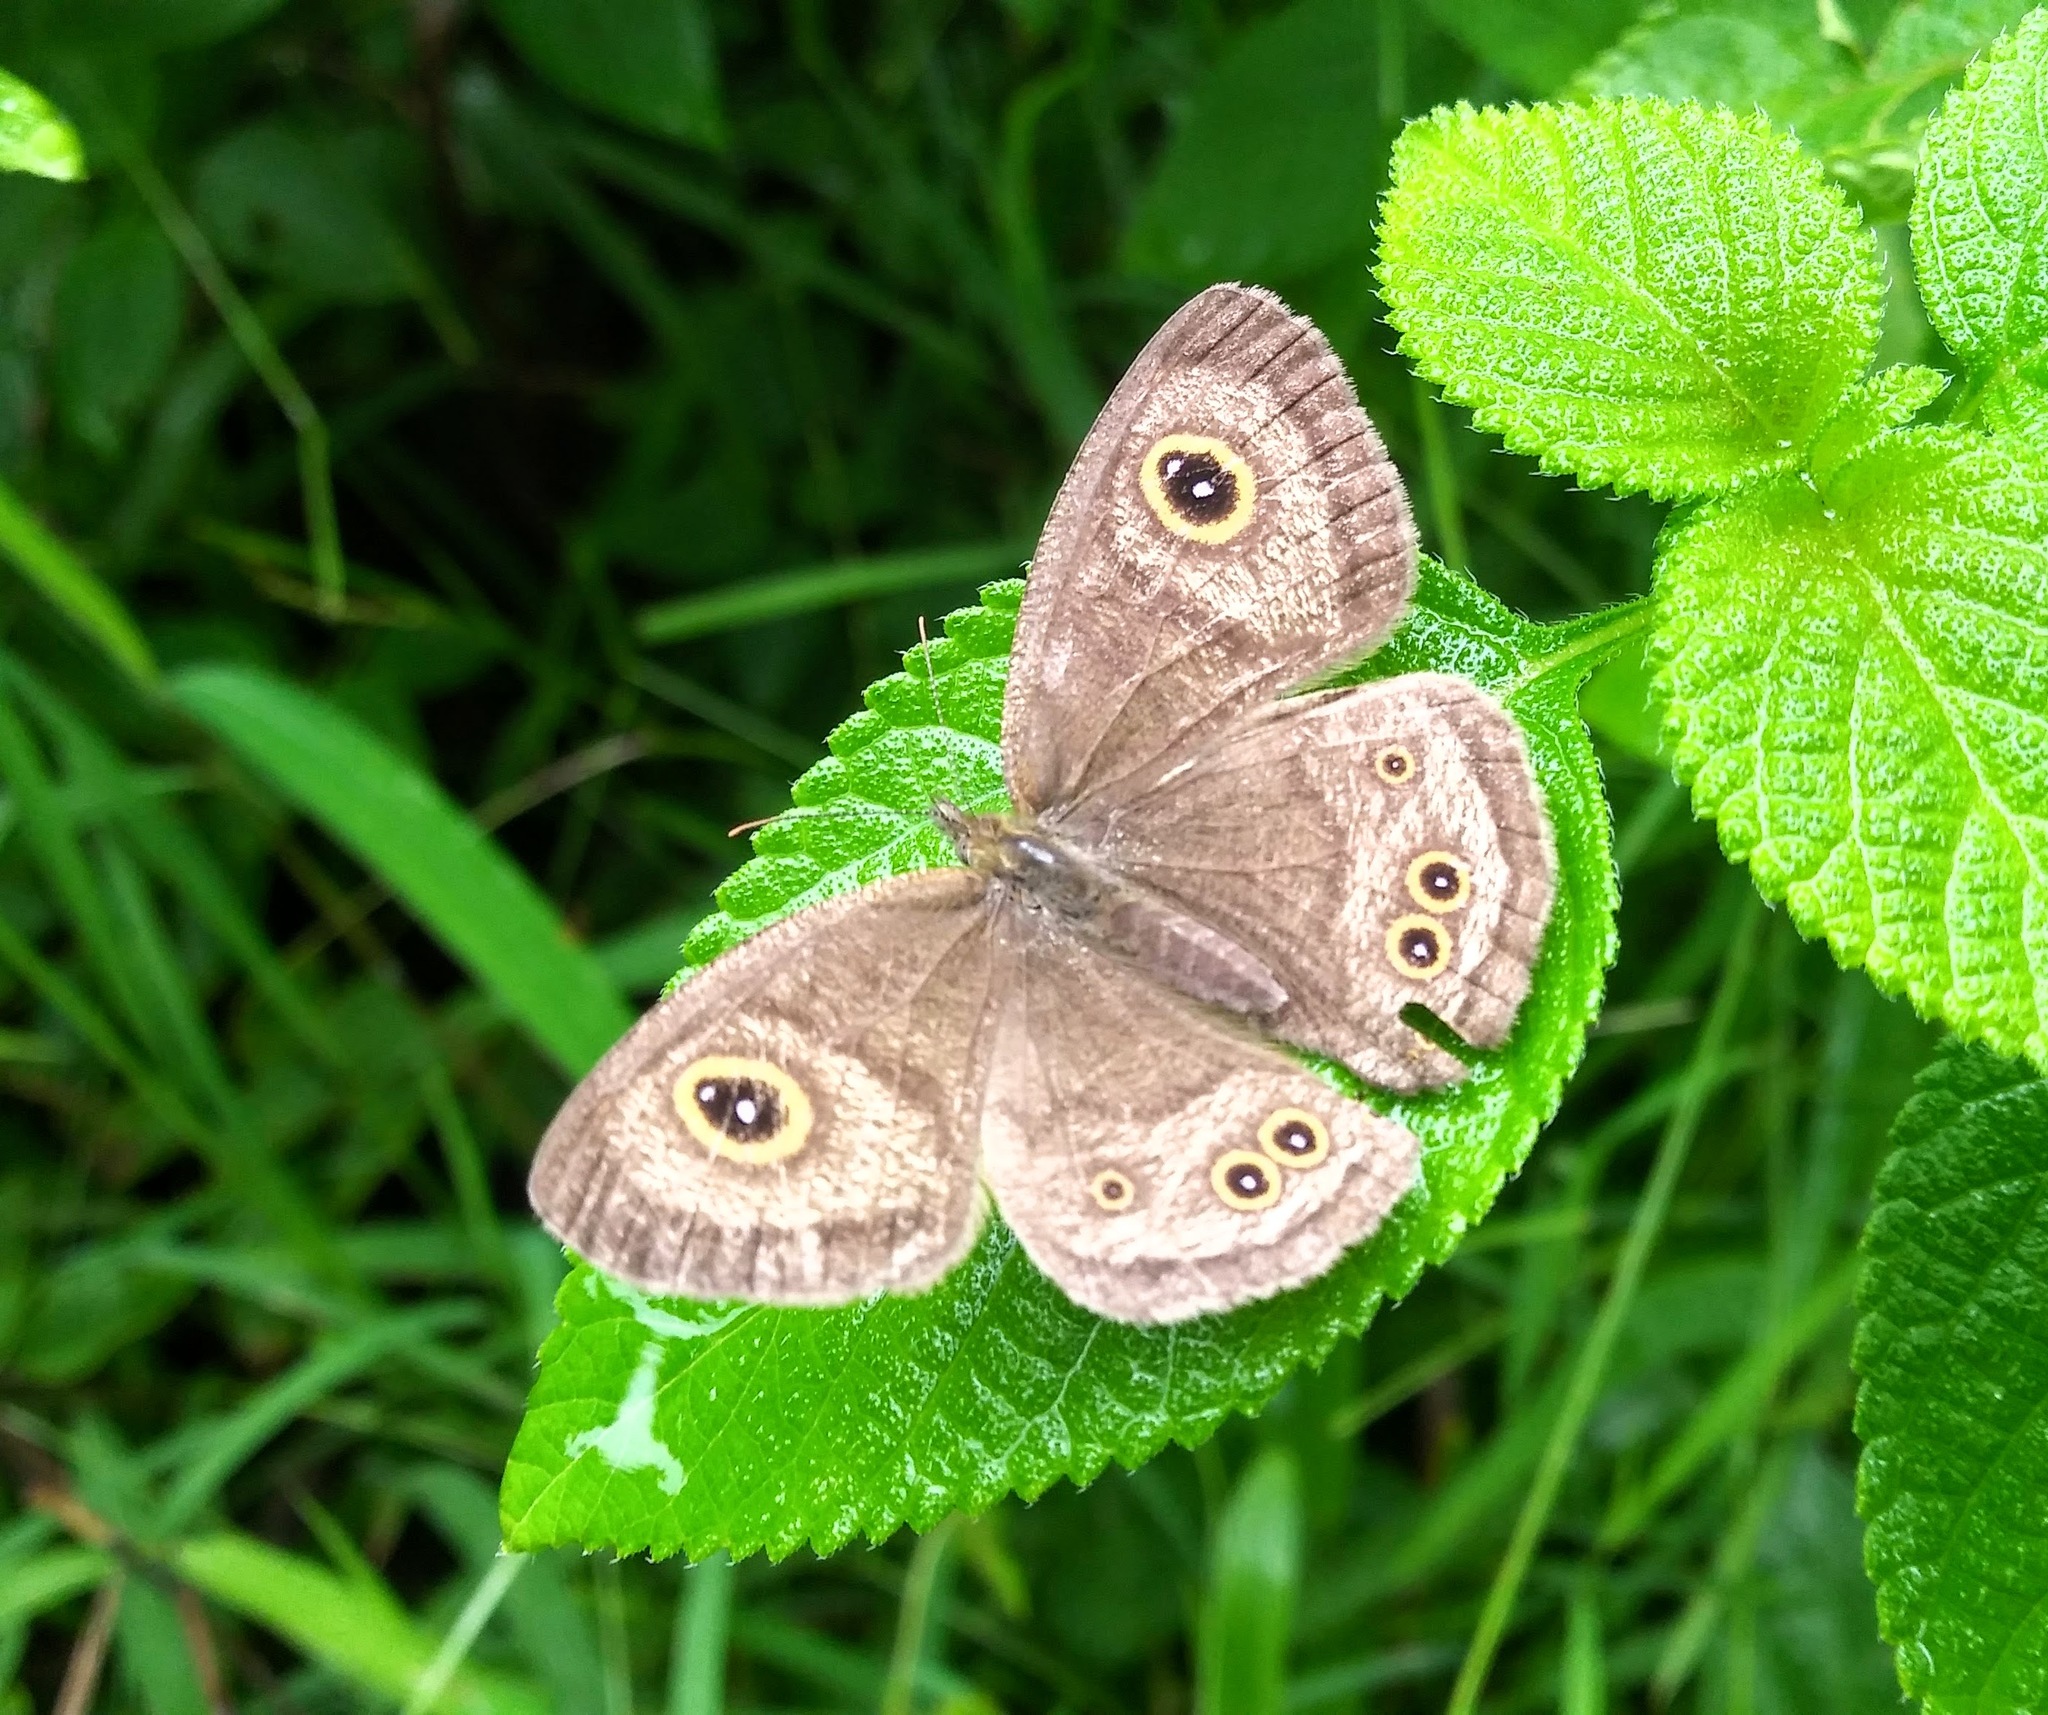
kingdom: Animalia
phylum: Arthropoda
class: Insecta
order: Lepidoptera
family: Nymphalidae
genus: Ypthima
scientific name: Ypthima huebneri
